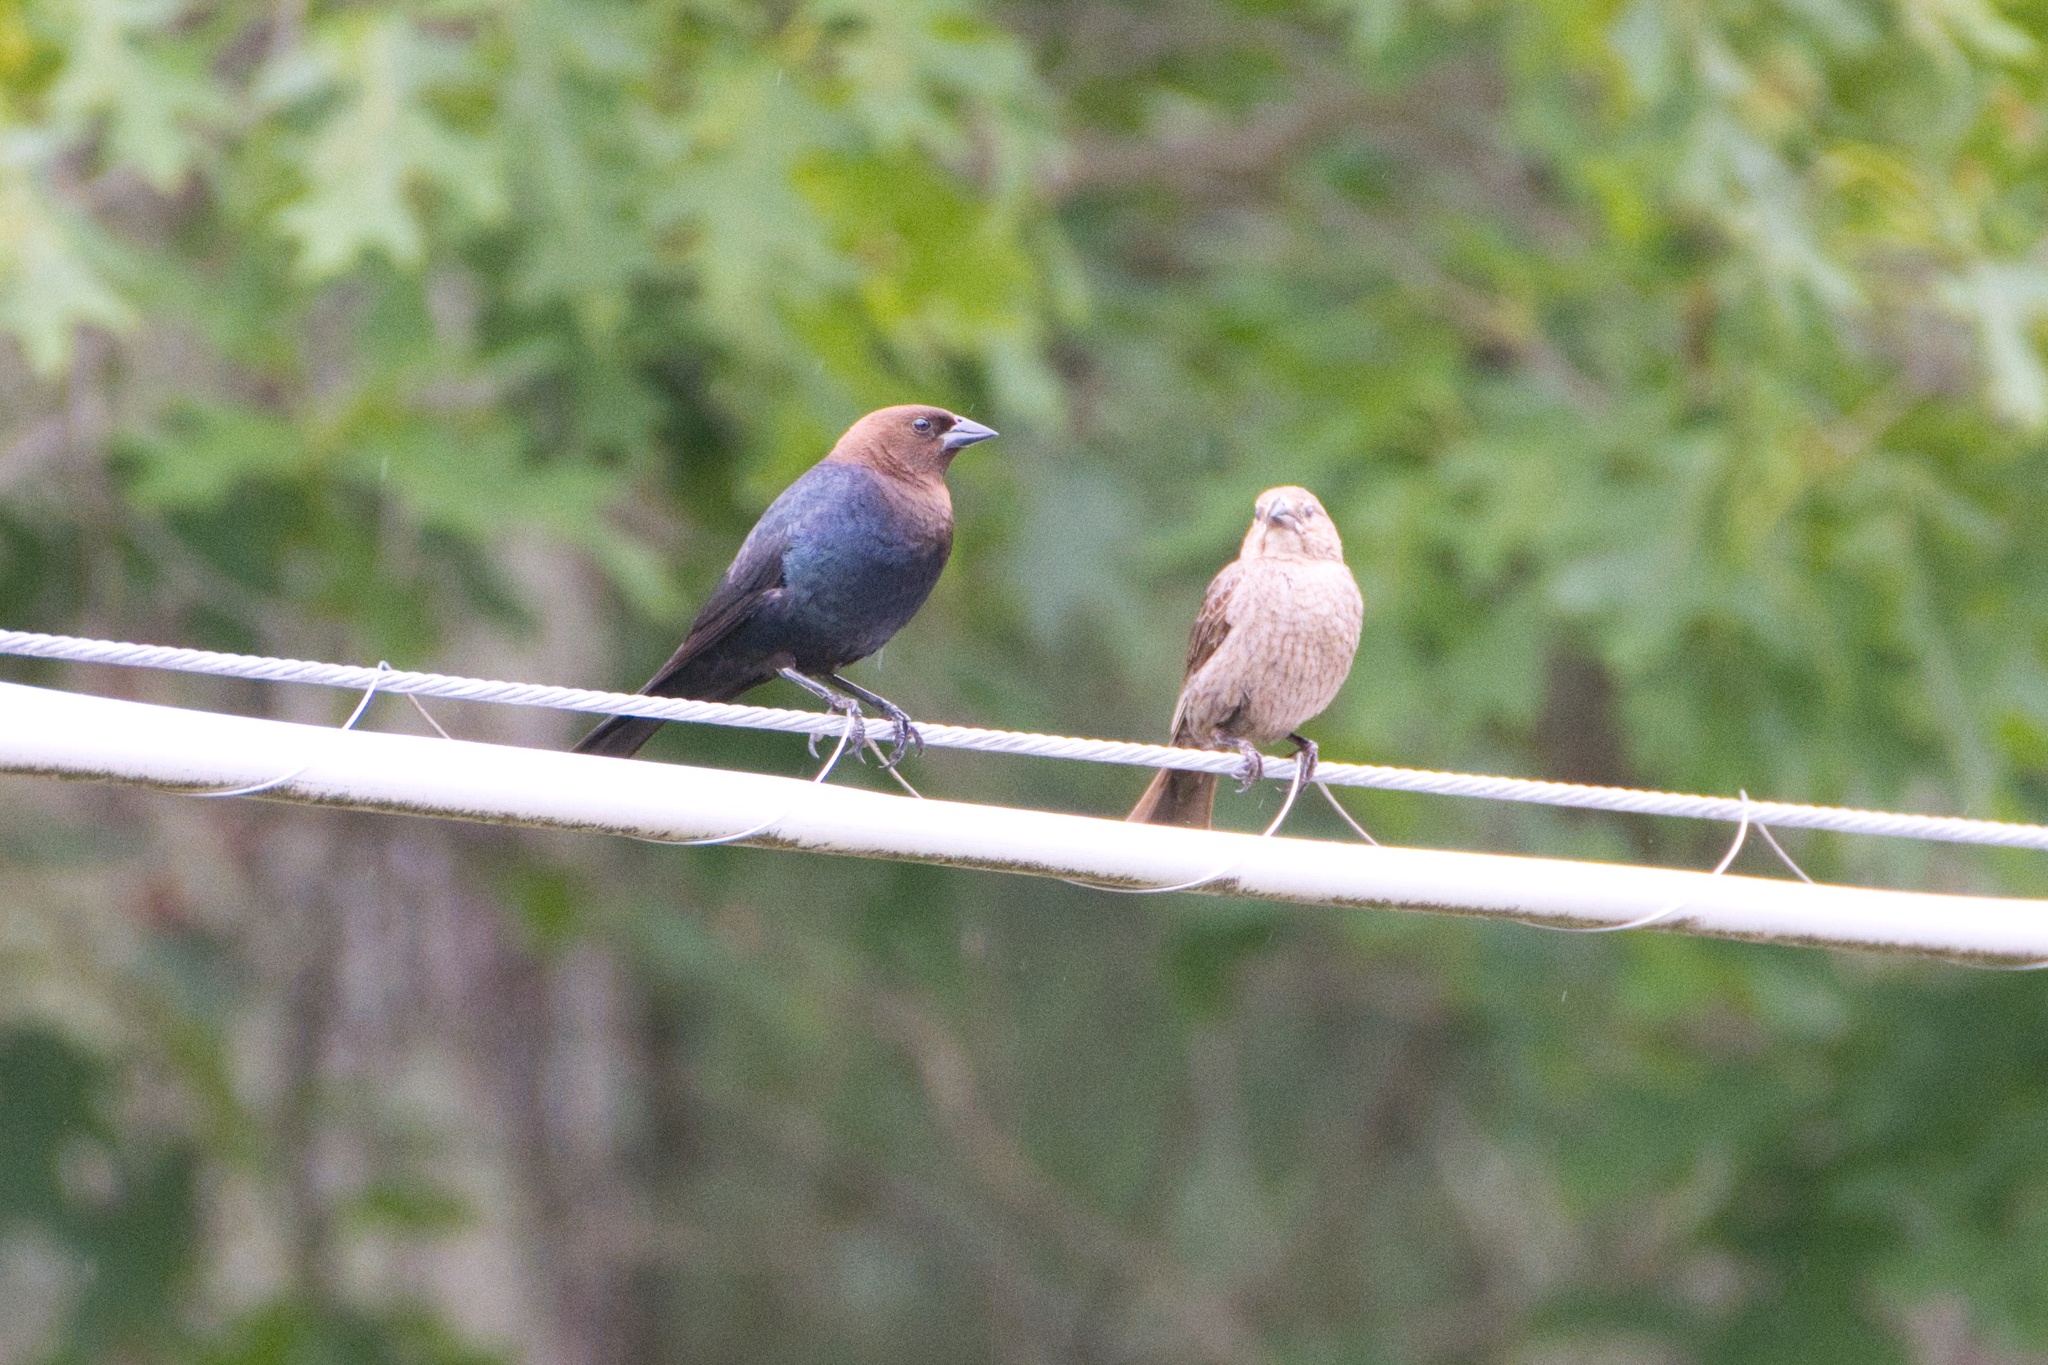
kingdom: Animalia
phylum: Chordata
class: Aves
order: Passeriformes
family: Icteridae
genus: Molothrus
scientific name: Molothrus ater
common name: Brown-headed cowbird
